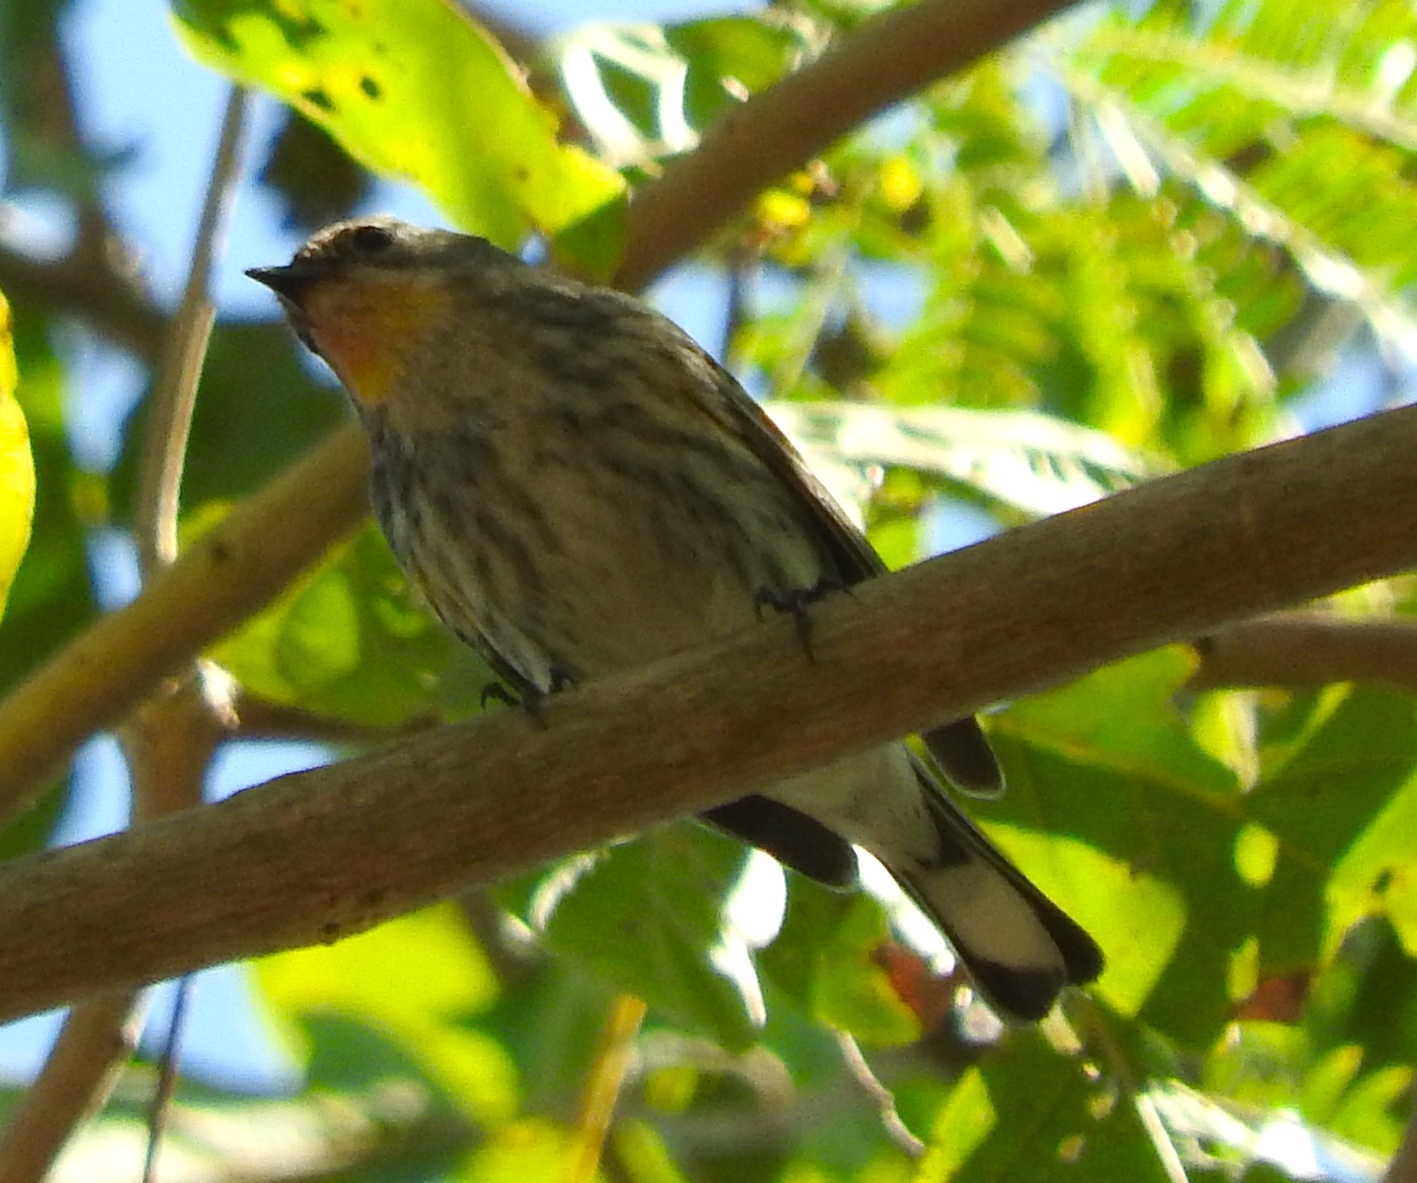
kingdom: Animalia
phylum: Chordata
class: Aves
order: Passeriformes
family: Parulidae
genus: Setophaga
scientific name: Setophaga coronata
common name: Myrtle warbler
